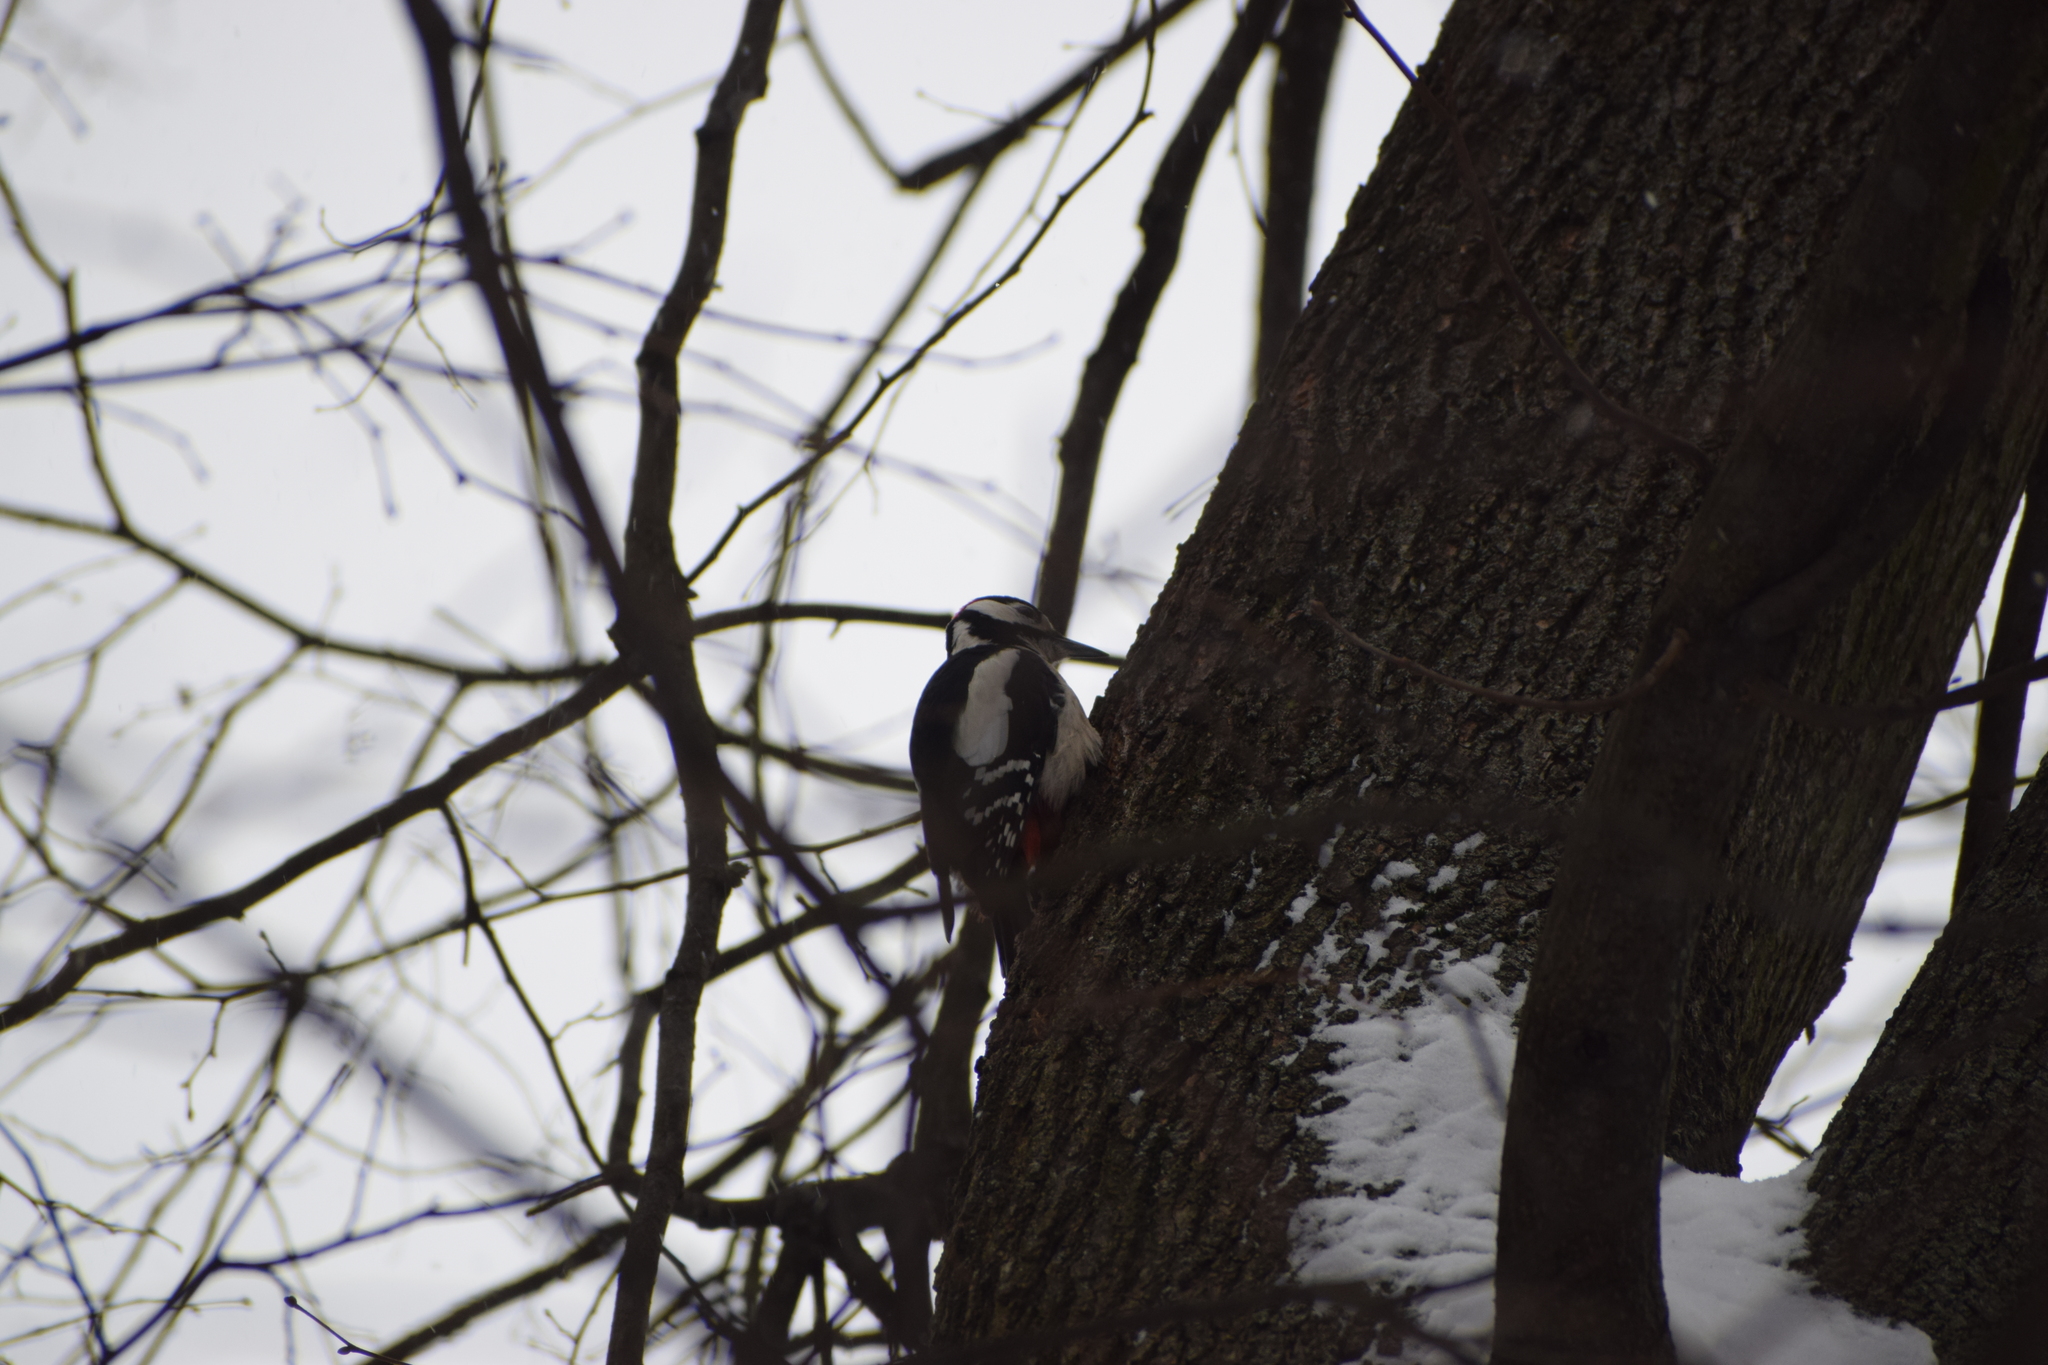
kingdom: Animalia
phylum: Chordata
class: Aves
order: Piciformes
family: Picidae
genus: Dendrocopos
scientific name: Dendrocopos major
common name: Great spotted woodpecker
